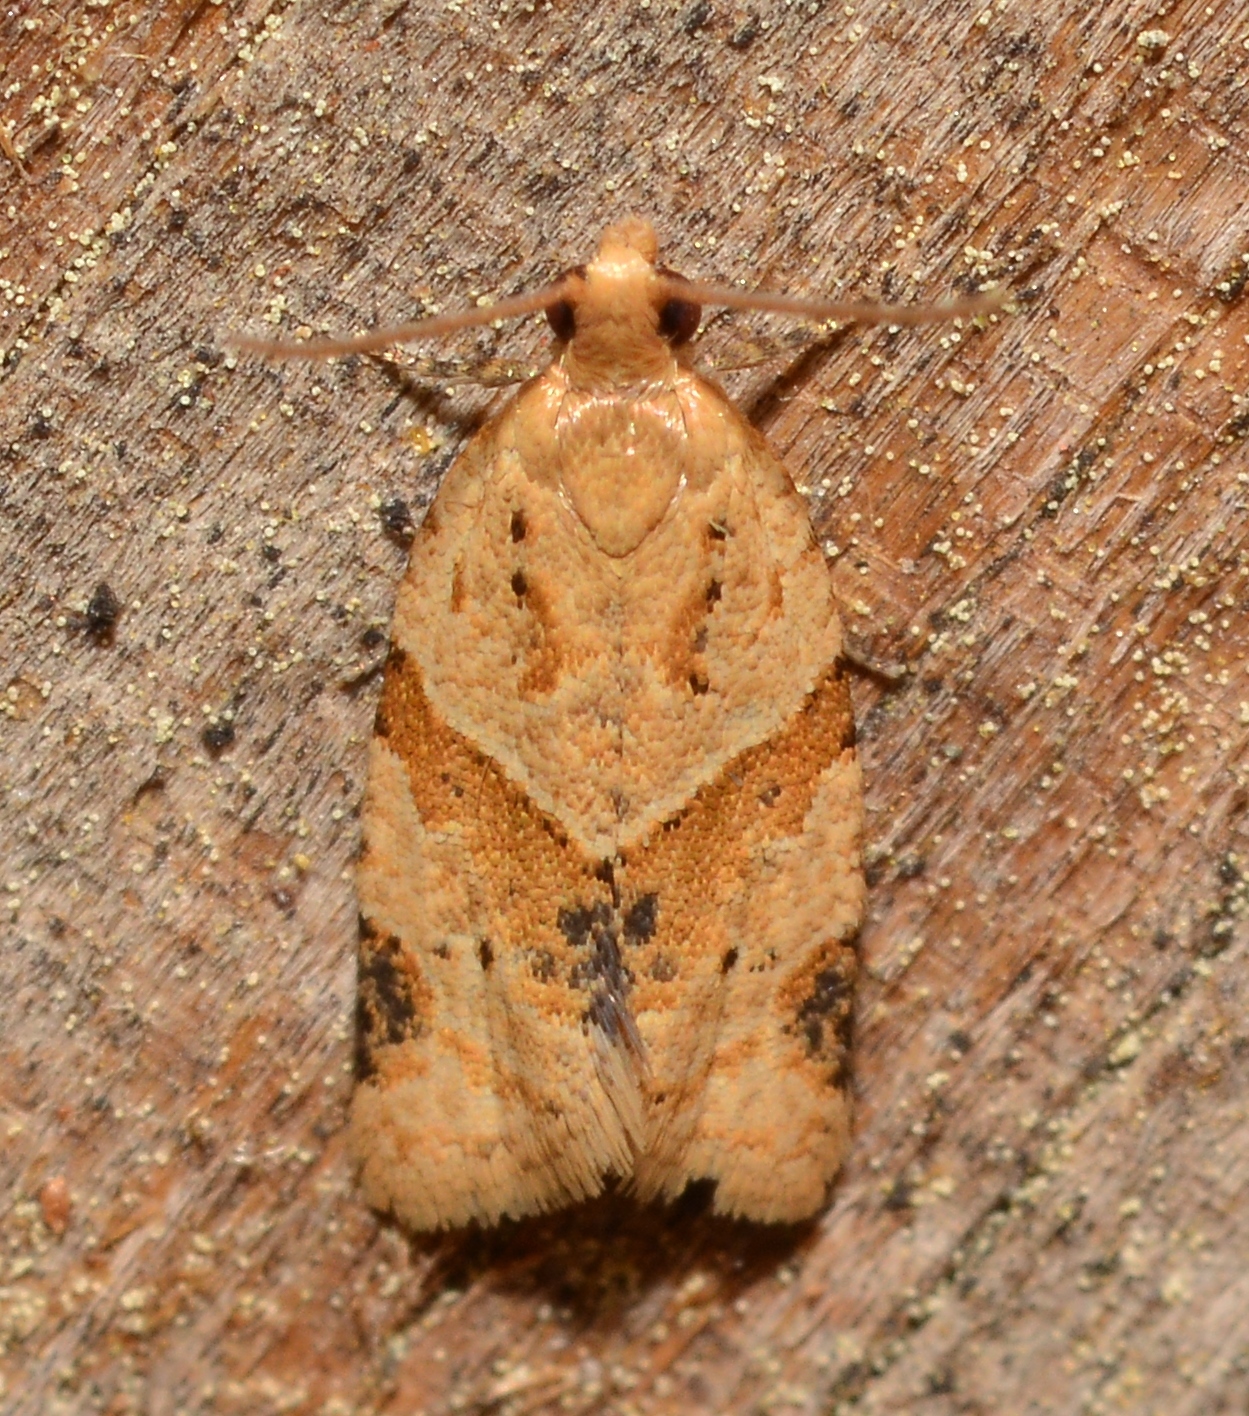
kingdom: Animalia
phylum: Arthropoda
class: Insecta
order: Lepidoptera
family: Tortricidae
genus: Clepsis
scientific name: Clepsis peritana
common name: Garden tortrix
